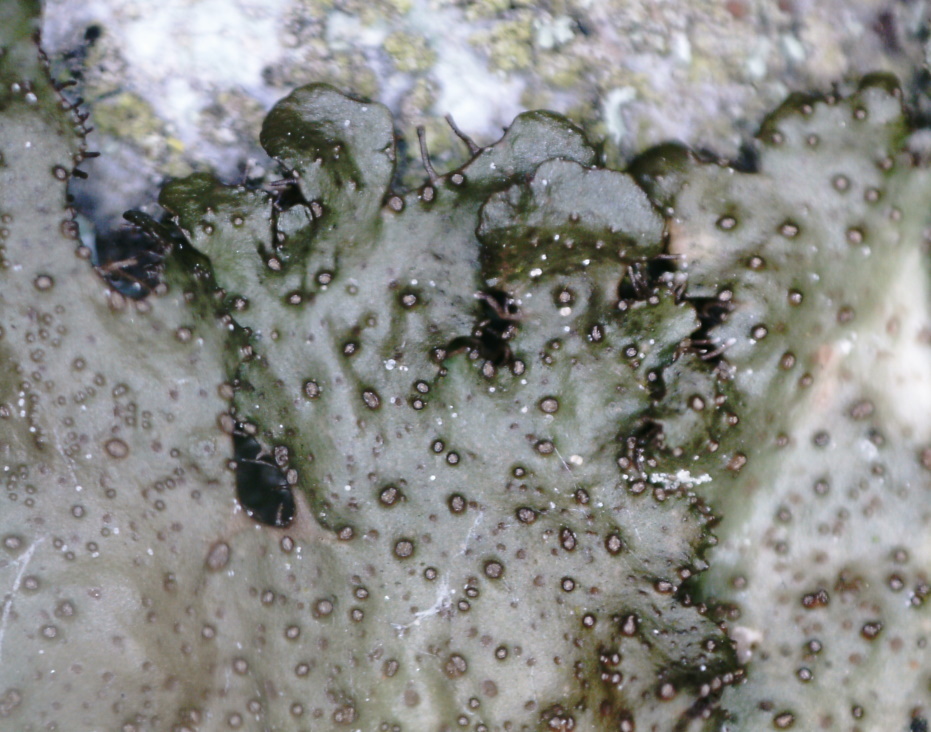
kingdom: Fungi
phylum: Ascomycota
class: Lecanoromycetes
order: Lecanorales
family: Parmeliaceae
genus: Melanohalea
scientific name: Melanohalea exasperata
